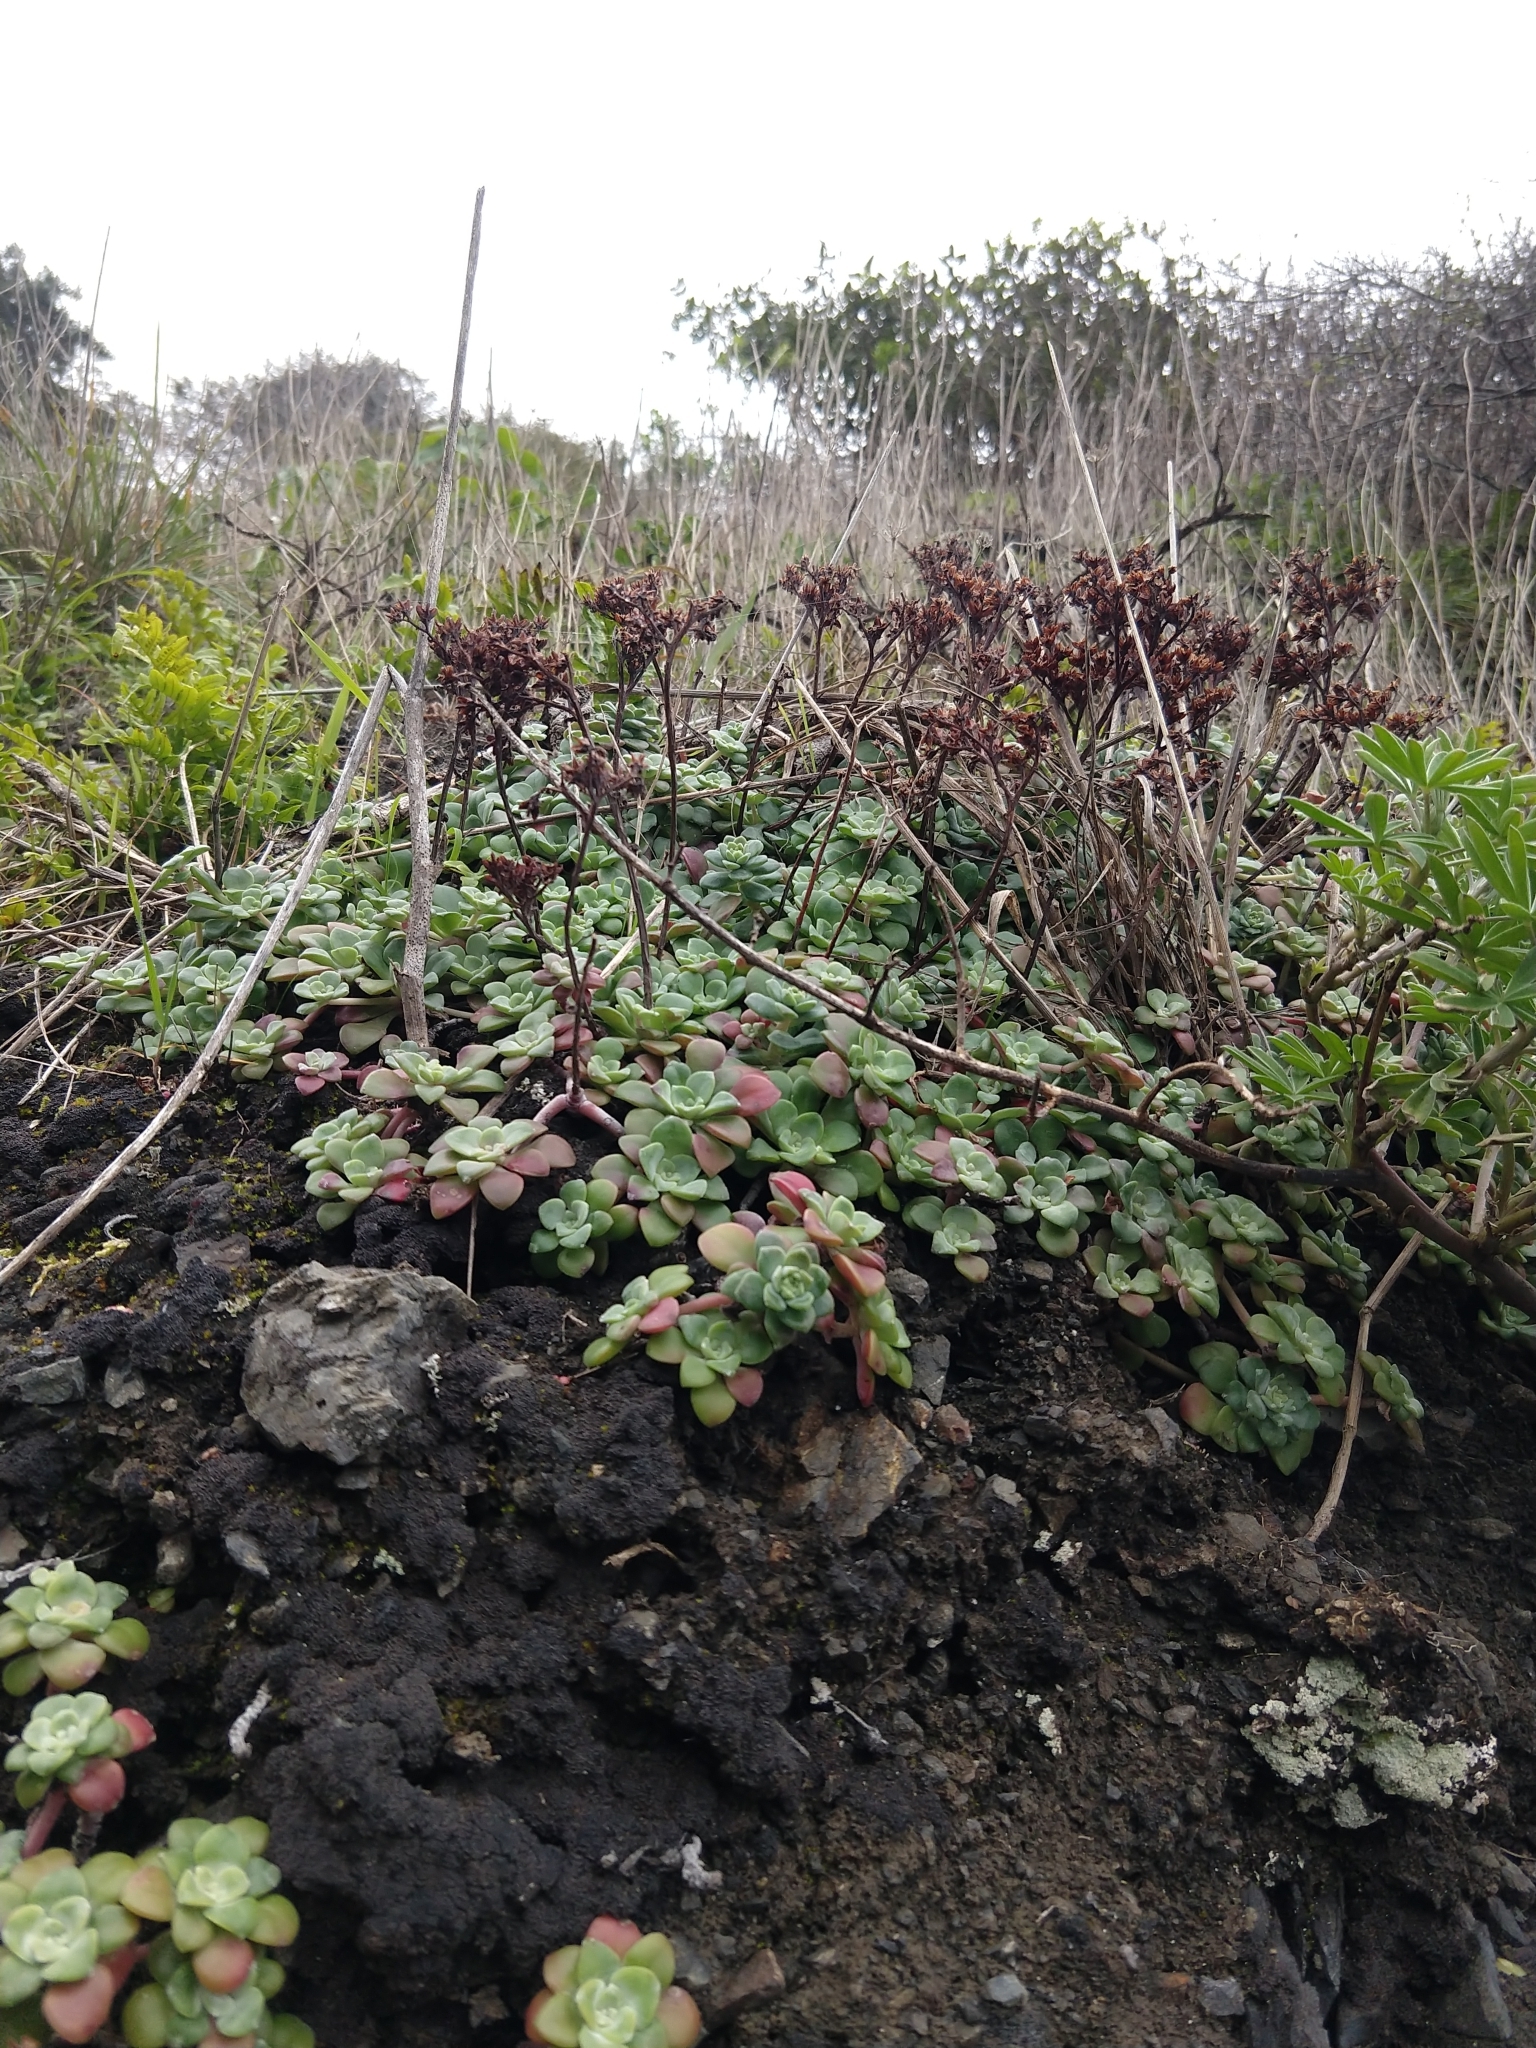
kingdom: Plantae
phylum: Tracheophyta
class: Magnoliopsida
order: Saxifragales
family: Crassulaceae
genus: Sedum
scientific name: Sedum spathulifolium
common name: Colorado stonecrop
